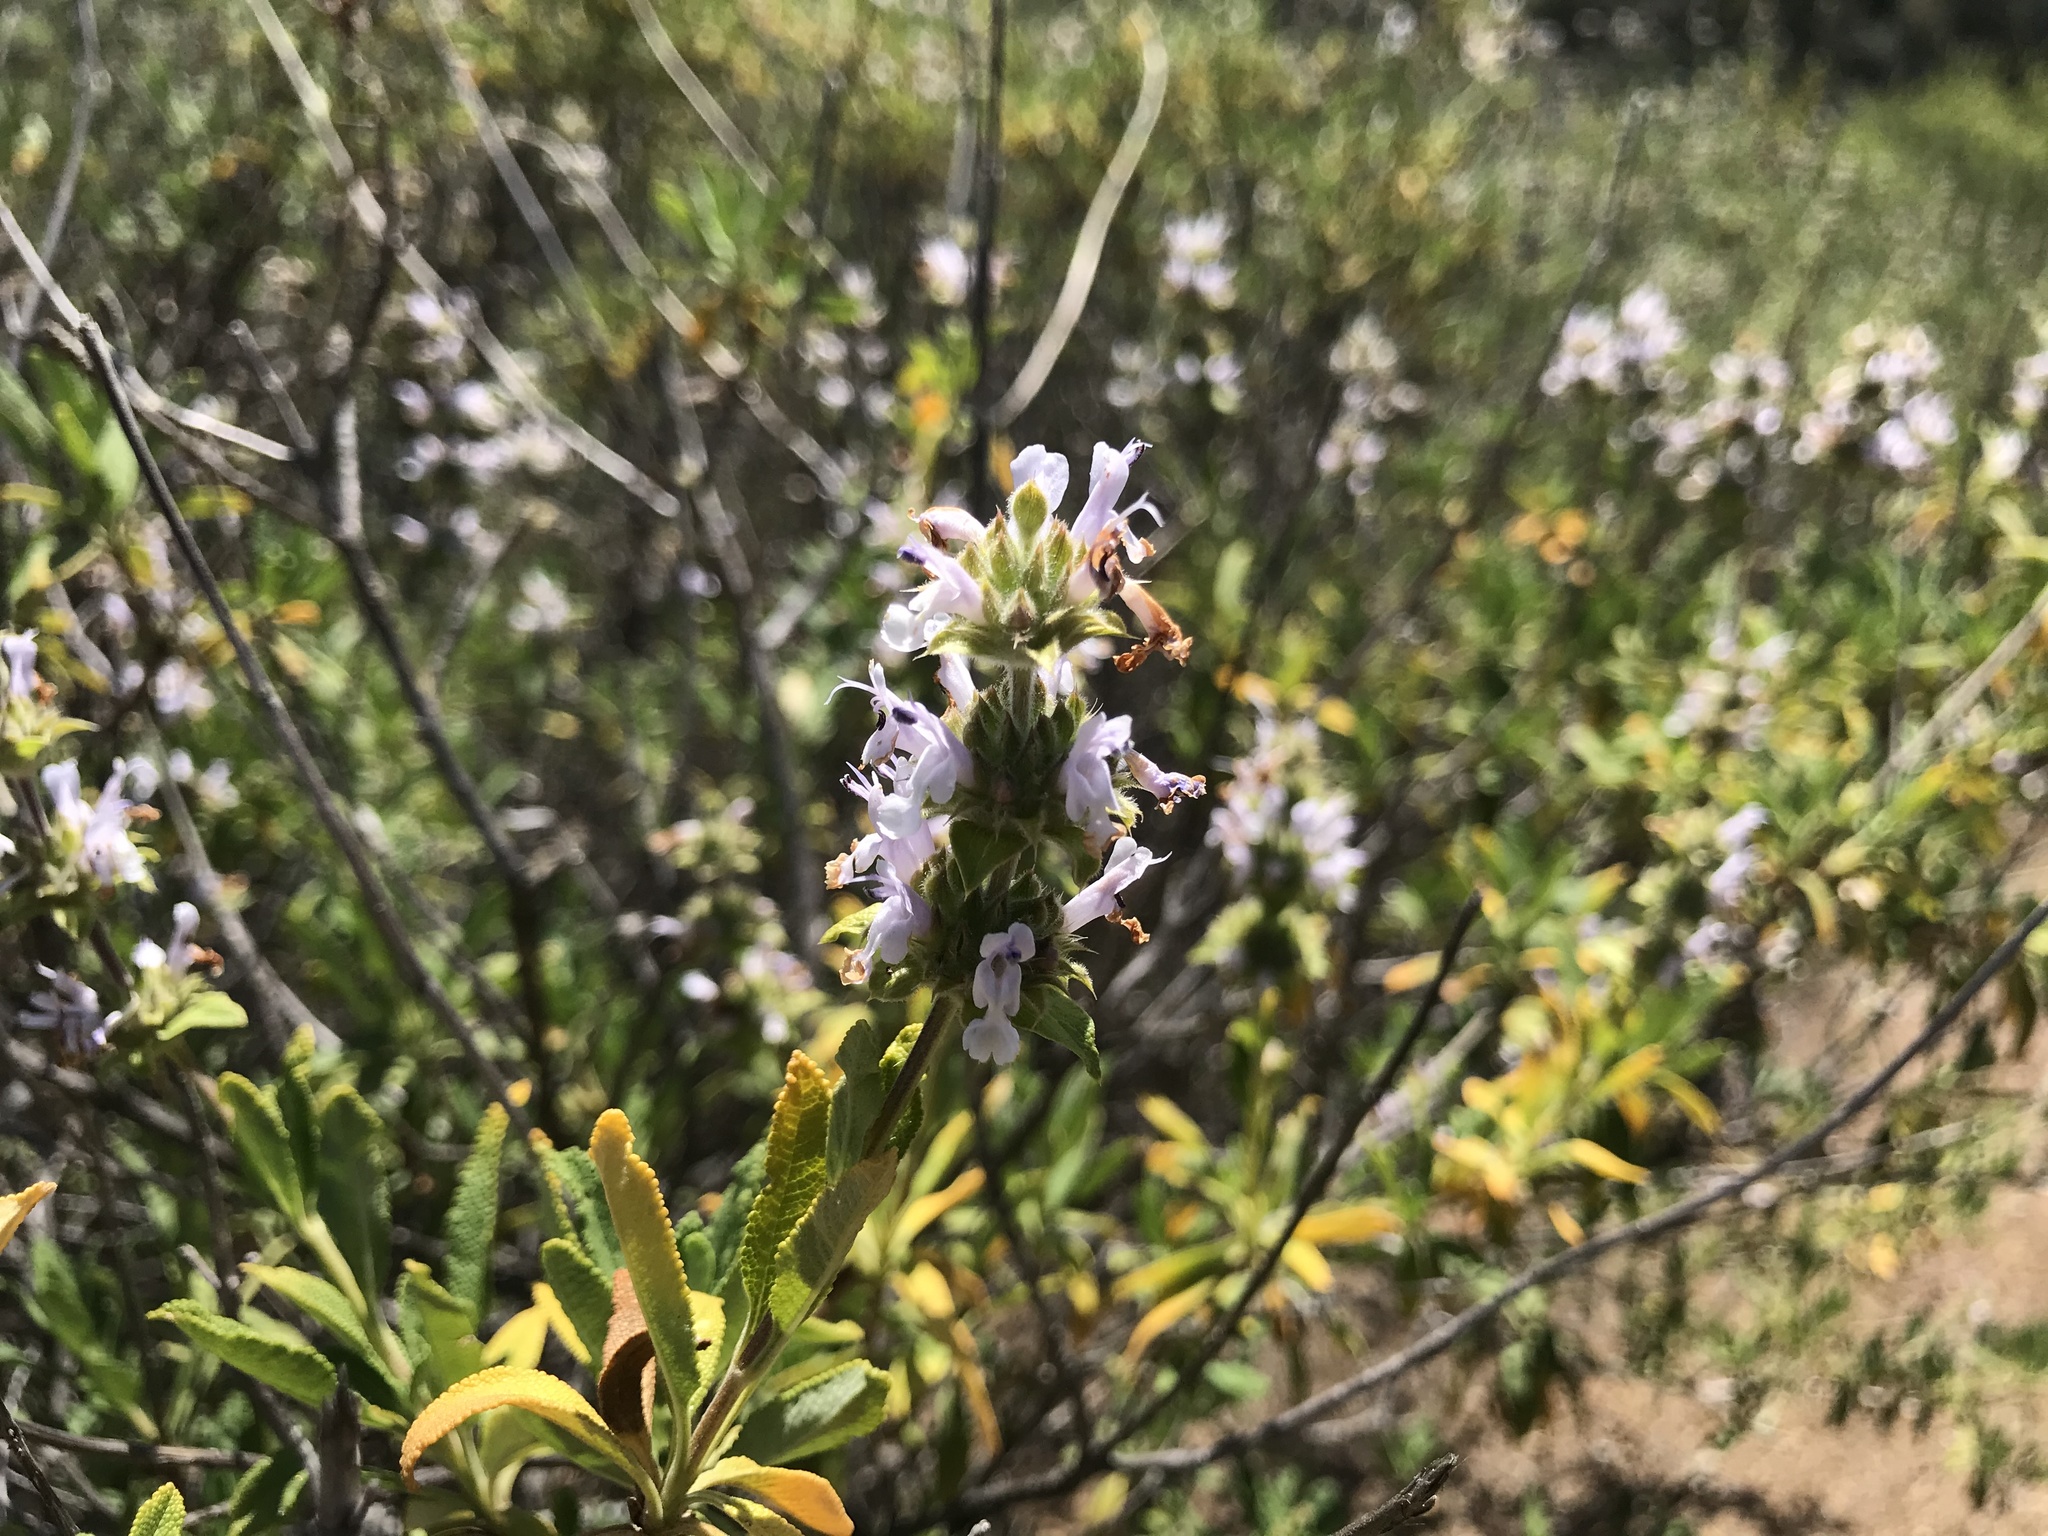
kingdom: Plantae
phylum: Tracheophyta
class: Magnoliopsida
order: Lamiales
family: Lamiaceae
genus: Salvia
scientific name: Salvia mellifera
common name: Black sage
